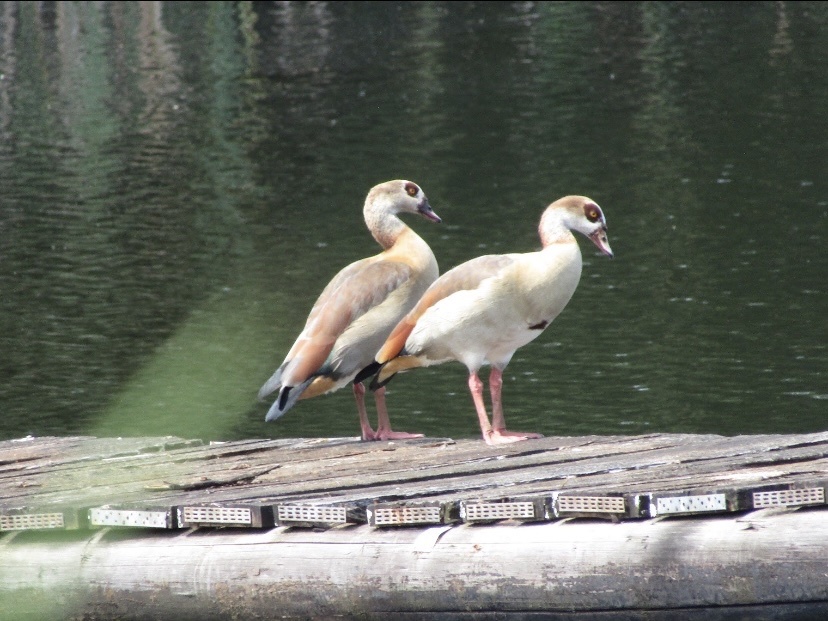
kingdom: Animalia
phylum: Chordata
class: Aves
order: Anseriformes
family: Anatidae
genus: Alopochen
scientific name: Alopochen aegyptiaca
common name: Egyptian goose
